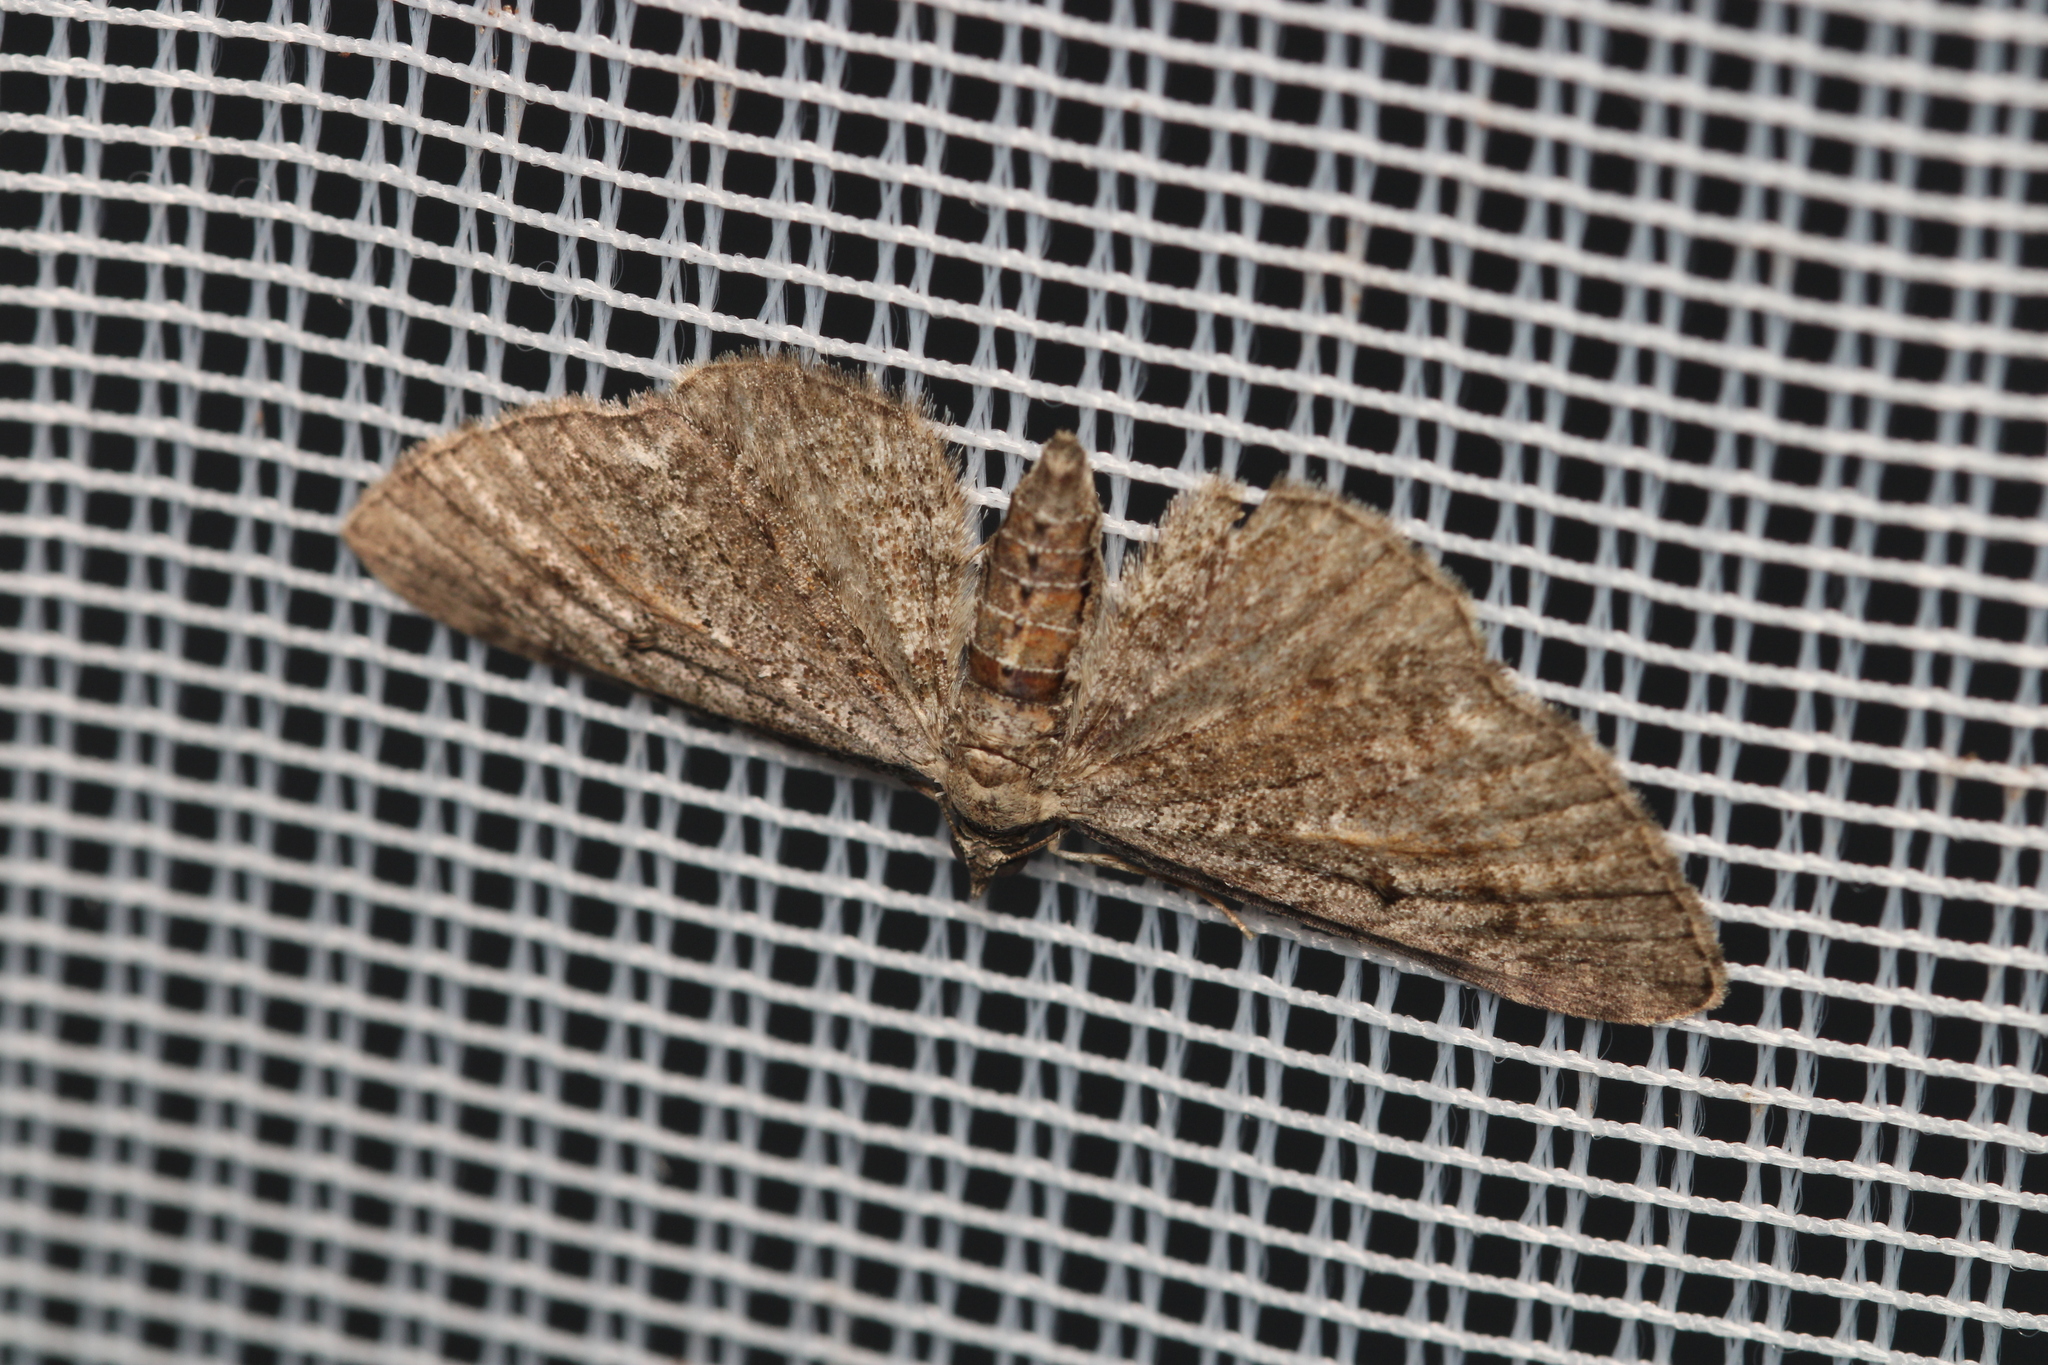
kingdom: Animalia
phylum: Arthropoda
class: Insecta
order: Lepidoptera
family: Geometridae
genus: Eupithecia
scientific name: Eupithecia icterata
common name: Tawny speckled pug
